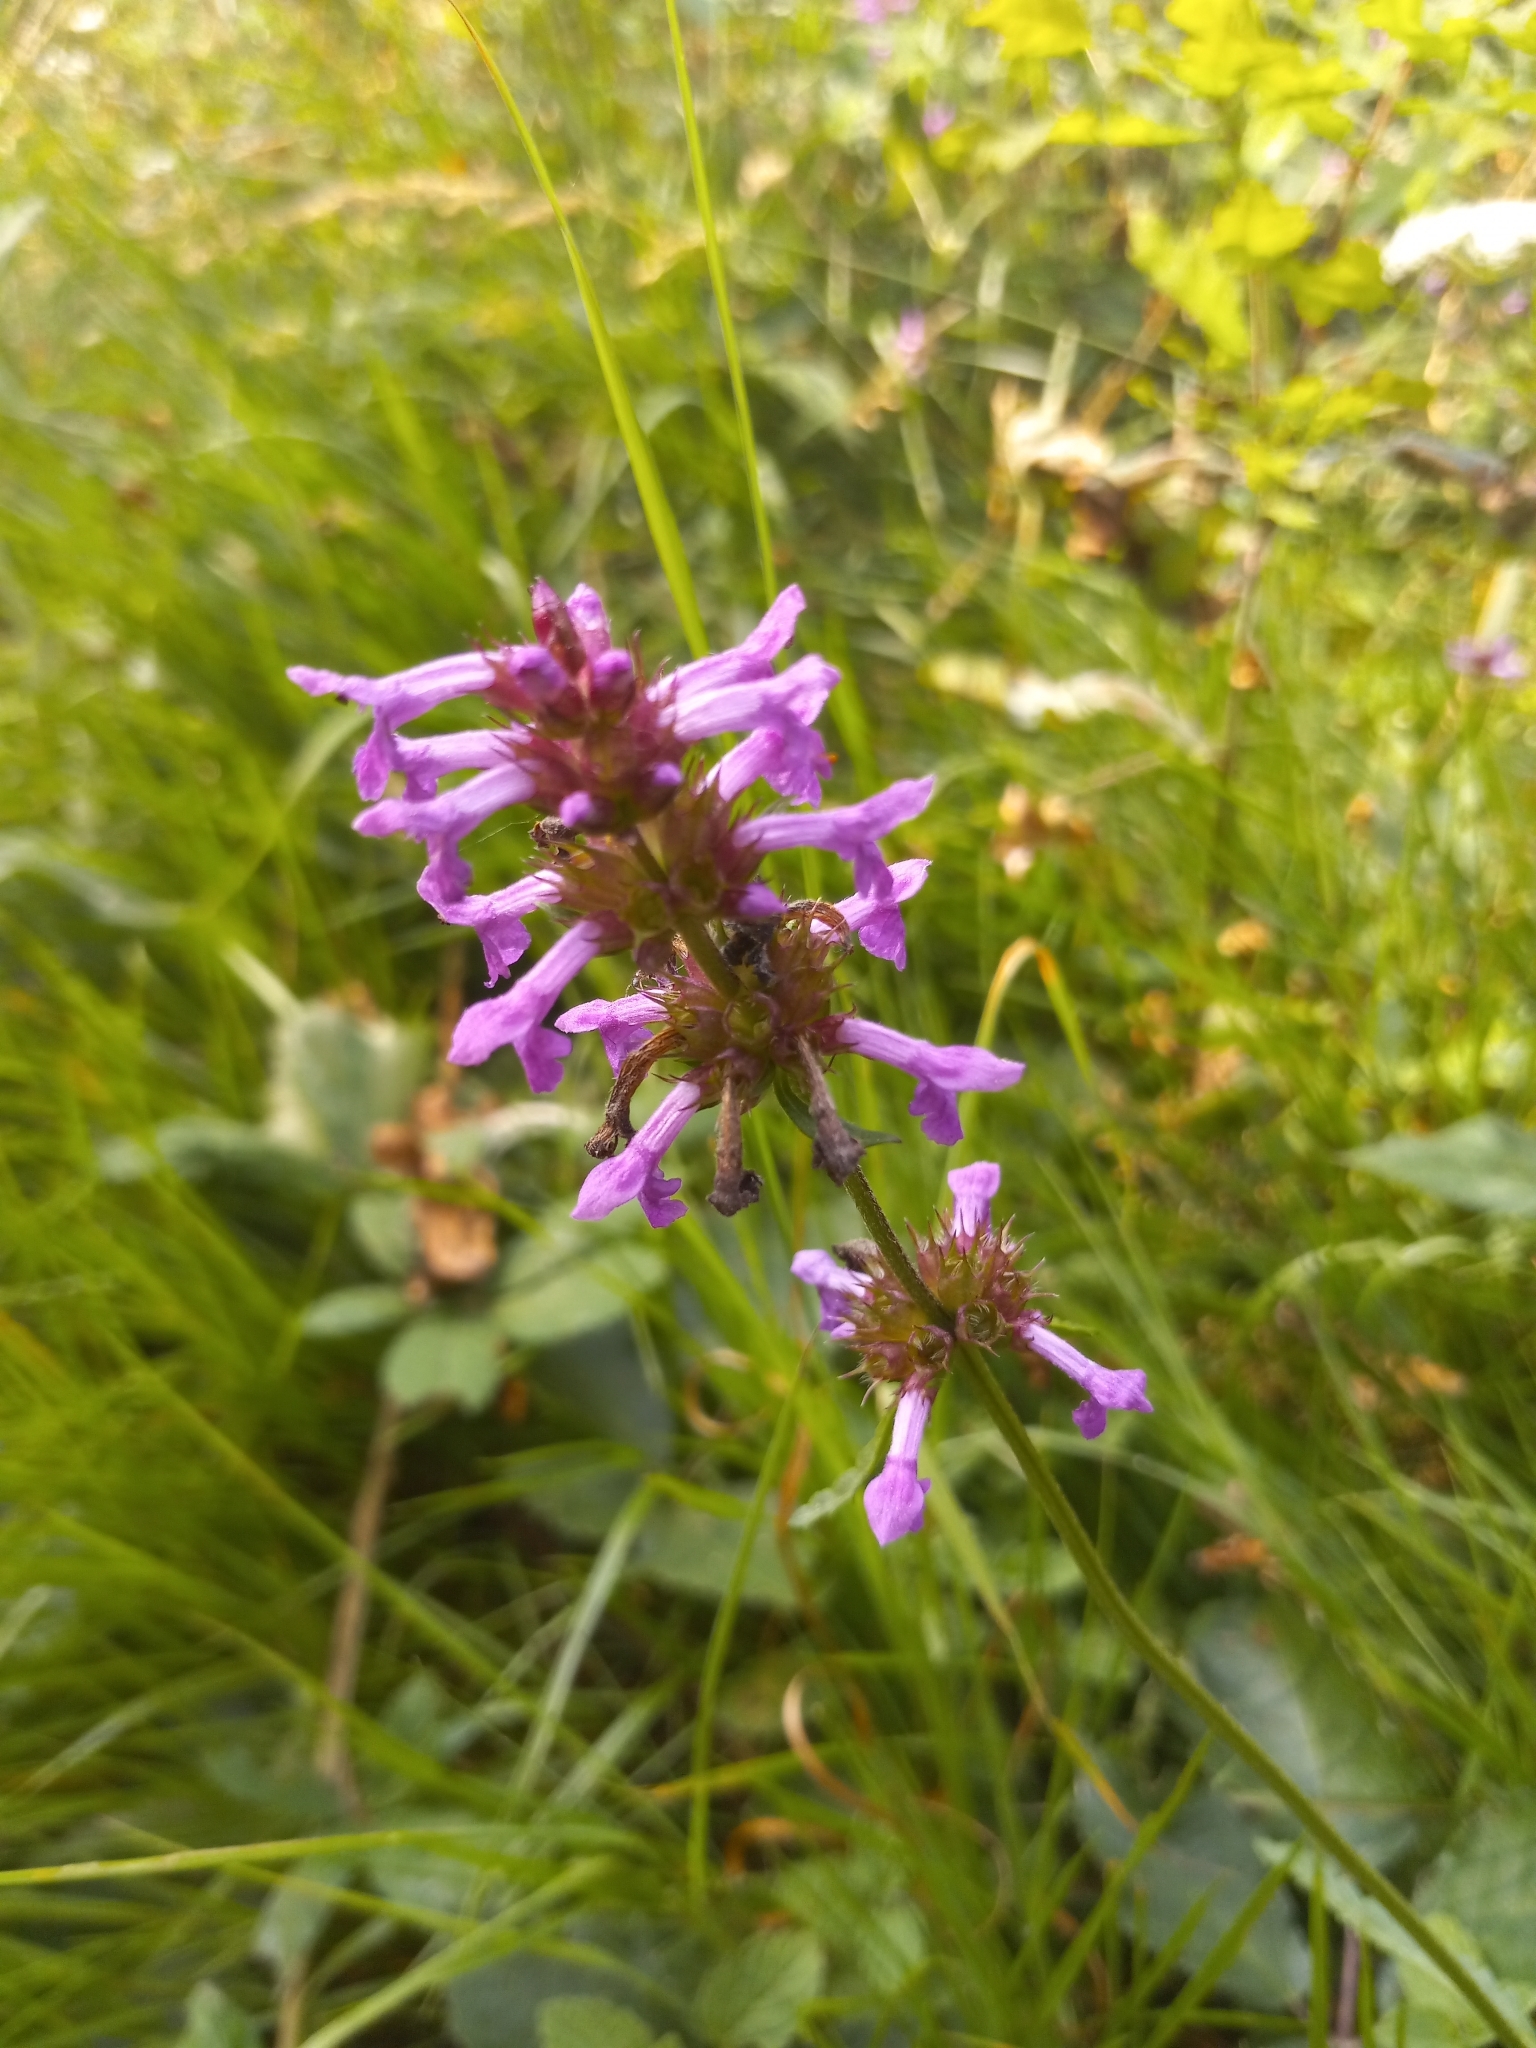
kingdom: Plantae
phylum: Tracheophyta
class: Magnoliopsida
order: Lamiales
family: Lamiaceae
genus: Betonica
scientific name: Betonica officinalis
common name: Bishop's-wort
